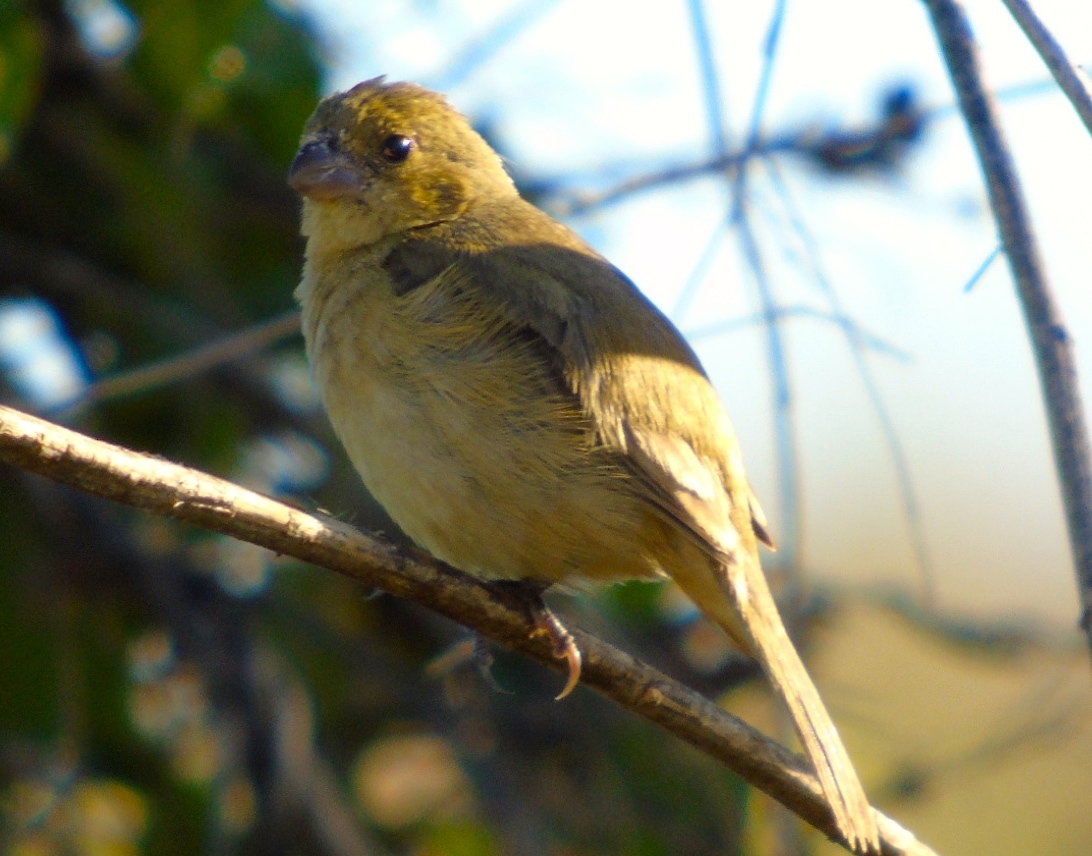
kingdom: Animalia
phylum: Chordata
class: Aves
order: Passeriformes
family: Thraupidae
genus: Sporophila
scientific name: Sporophila torqueola
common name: White-collared seedeater
